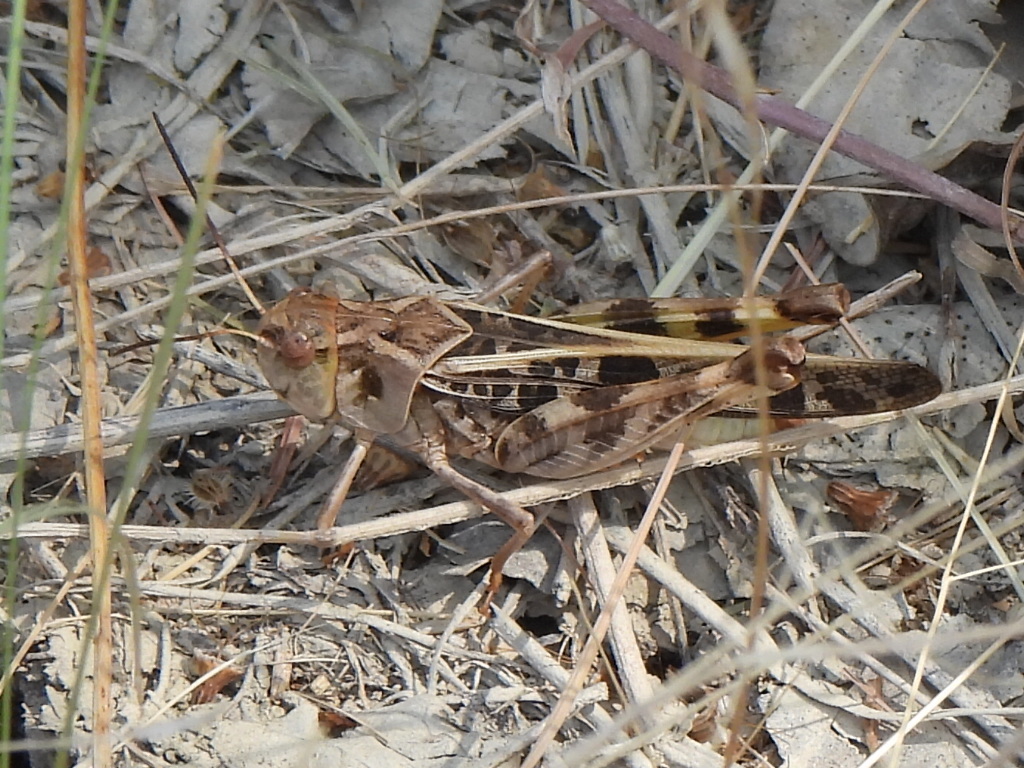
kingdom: Animalia
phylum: Arthropoda
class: Insecta
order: Orthoptera
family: Acrididae
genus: Hippiscus
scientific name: Hippiscus ocelote
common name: Wrinkled grasshopper
